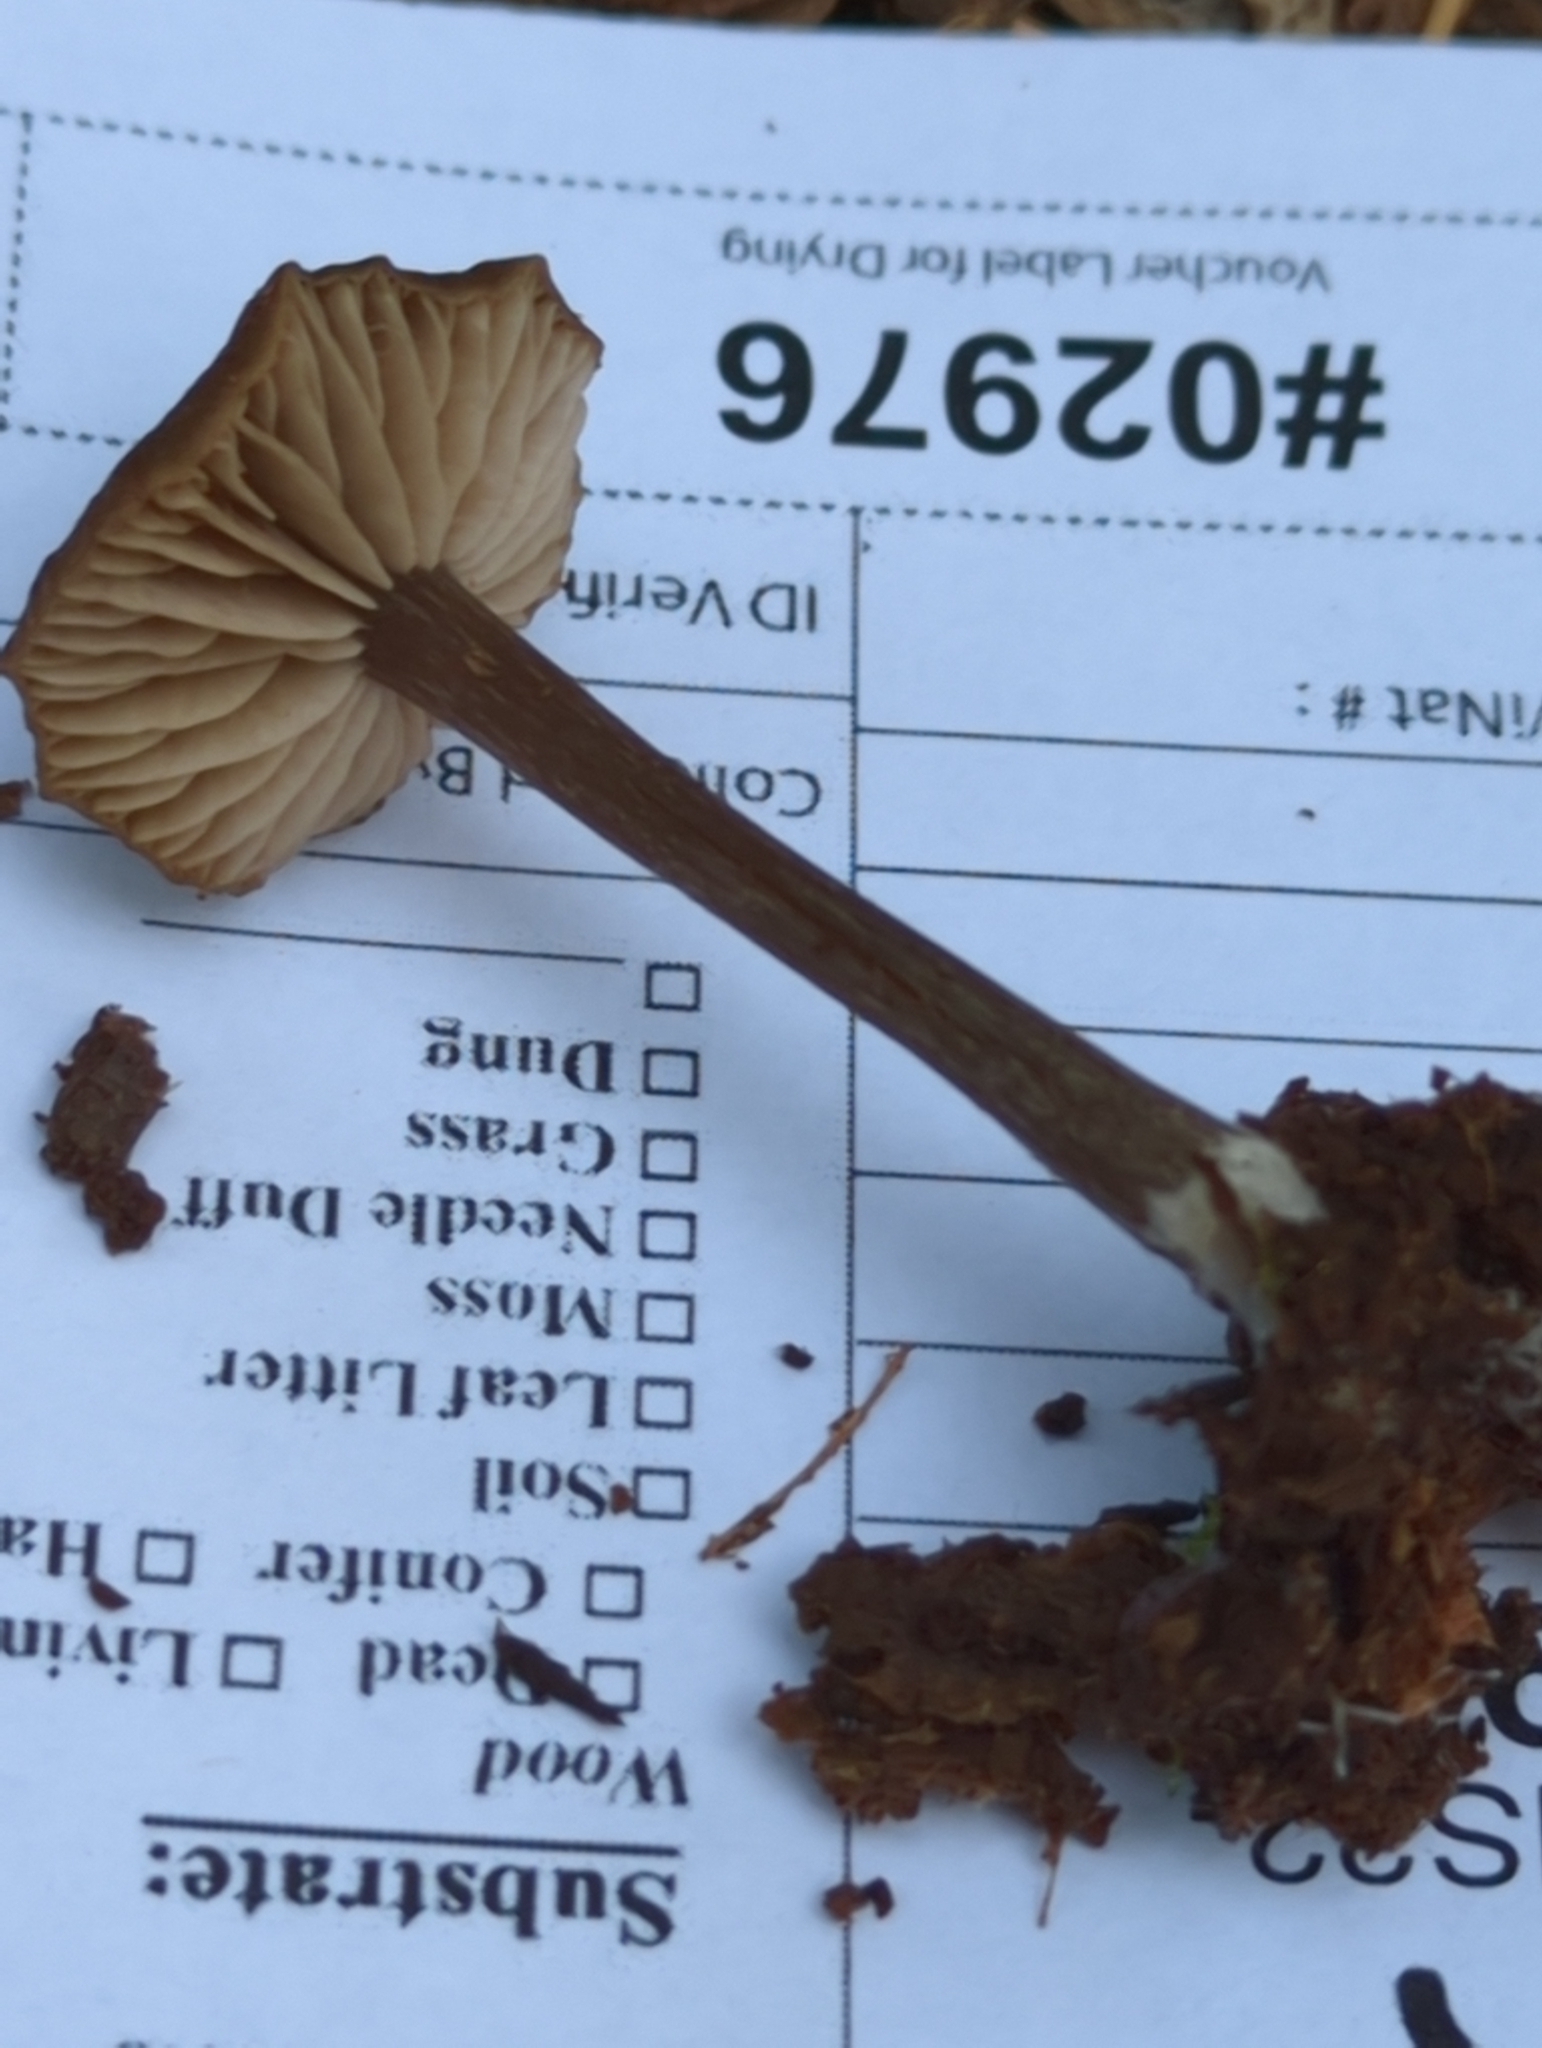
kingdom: Fungi
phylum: Basidiomycota
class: Agaricomycetes
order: Agaricales
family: Entolomataceae
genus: Entoloma
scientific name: Entoloma ortonii
